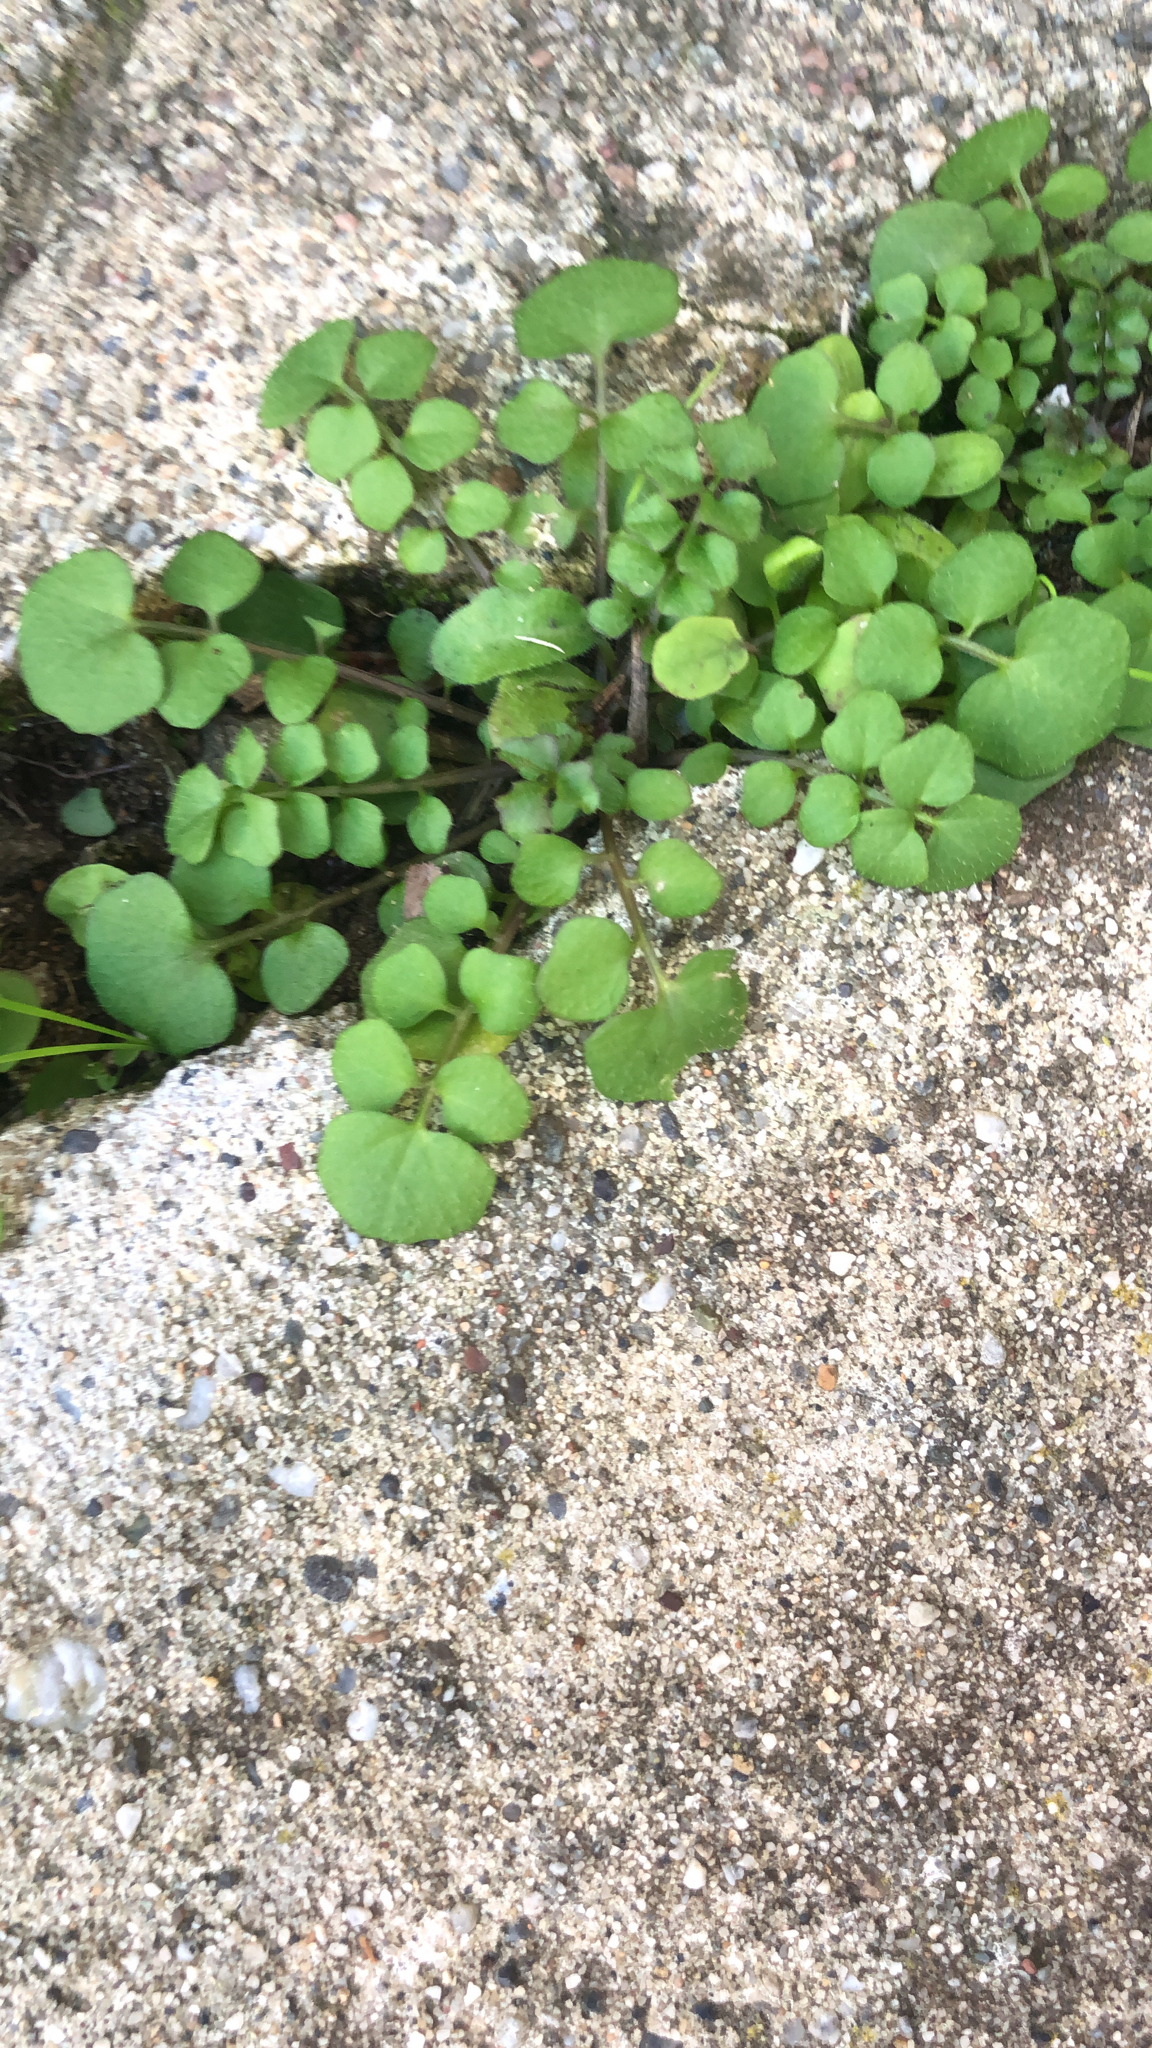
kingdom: Plantae
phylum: Tracheophyta
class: Magnoliopsida
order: Brassicales
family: Brassicaceae
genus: Cardamine
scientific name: Cardamine hirsuta
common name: Hairy bittercress
